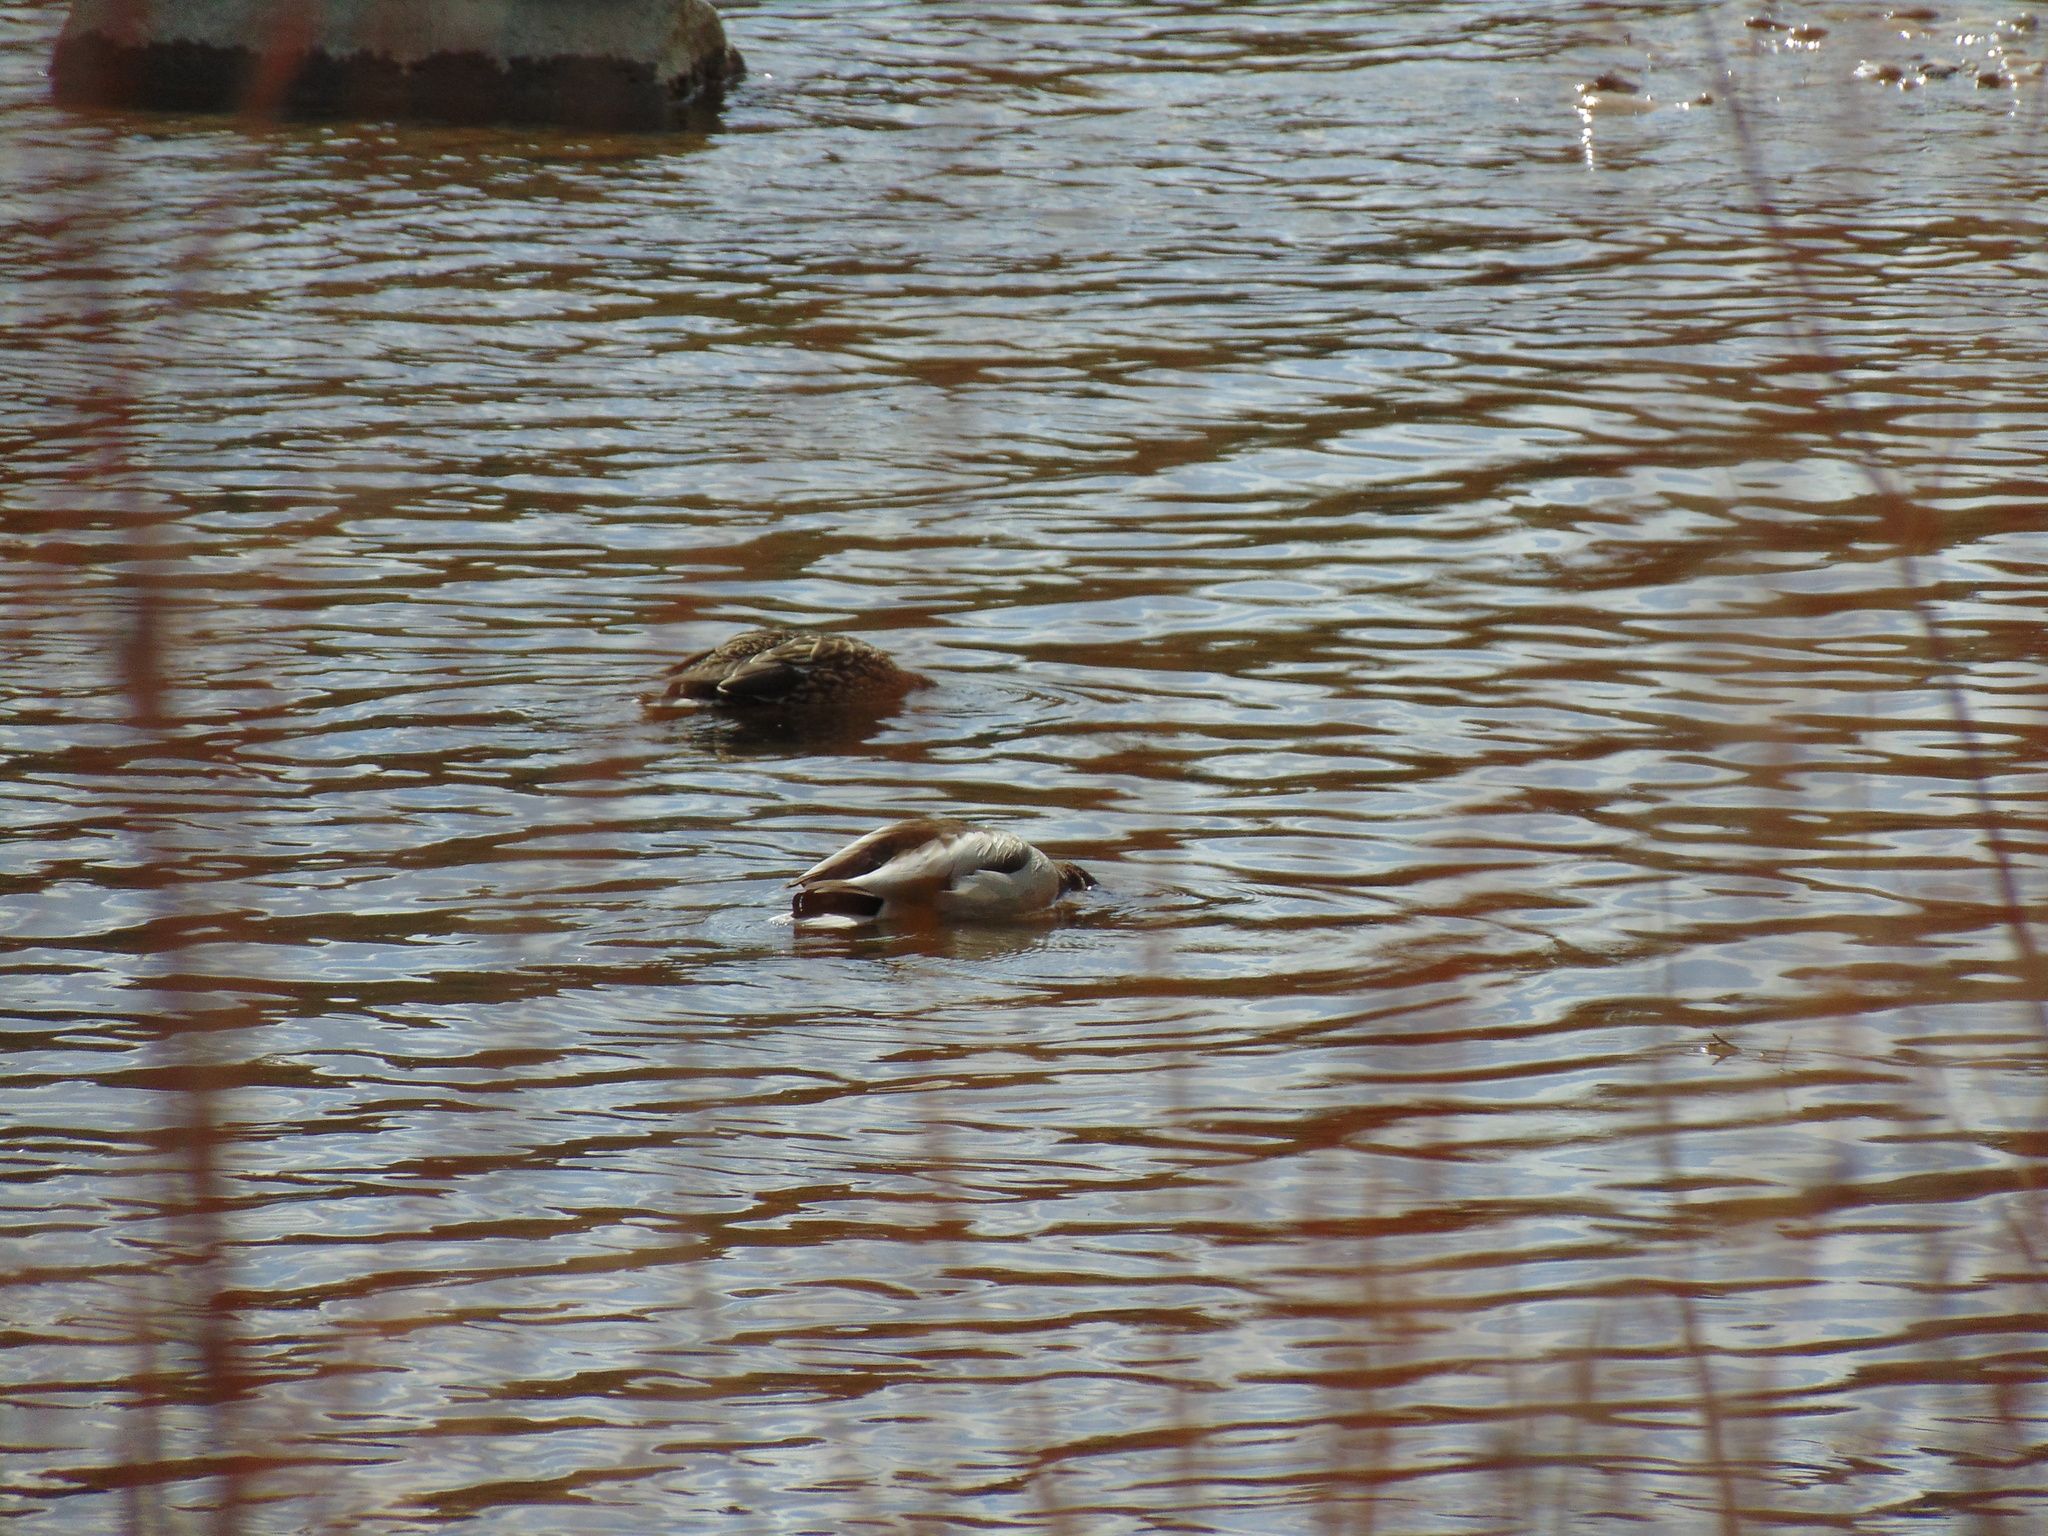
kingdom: Animalia
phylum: Chordata
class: Aves
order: Anseriformes
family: Anatidae
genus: Anas
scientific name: Anas platyrhynchos
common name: Mallard
